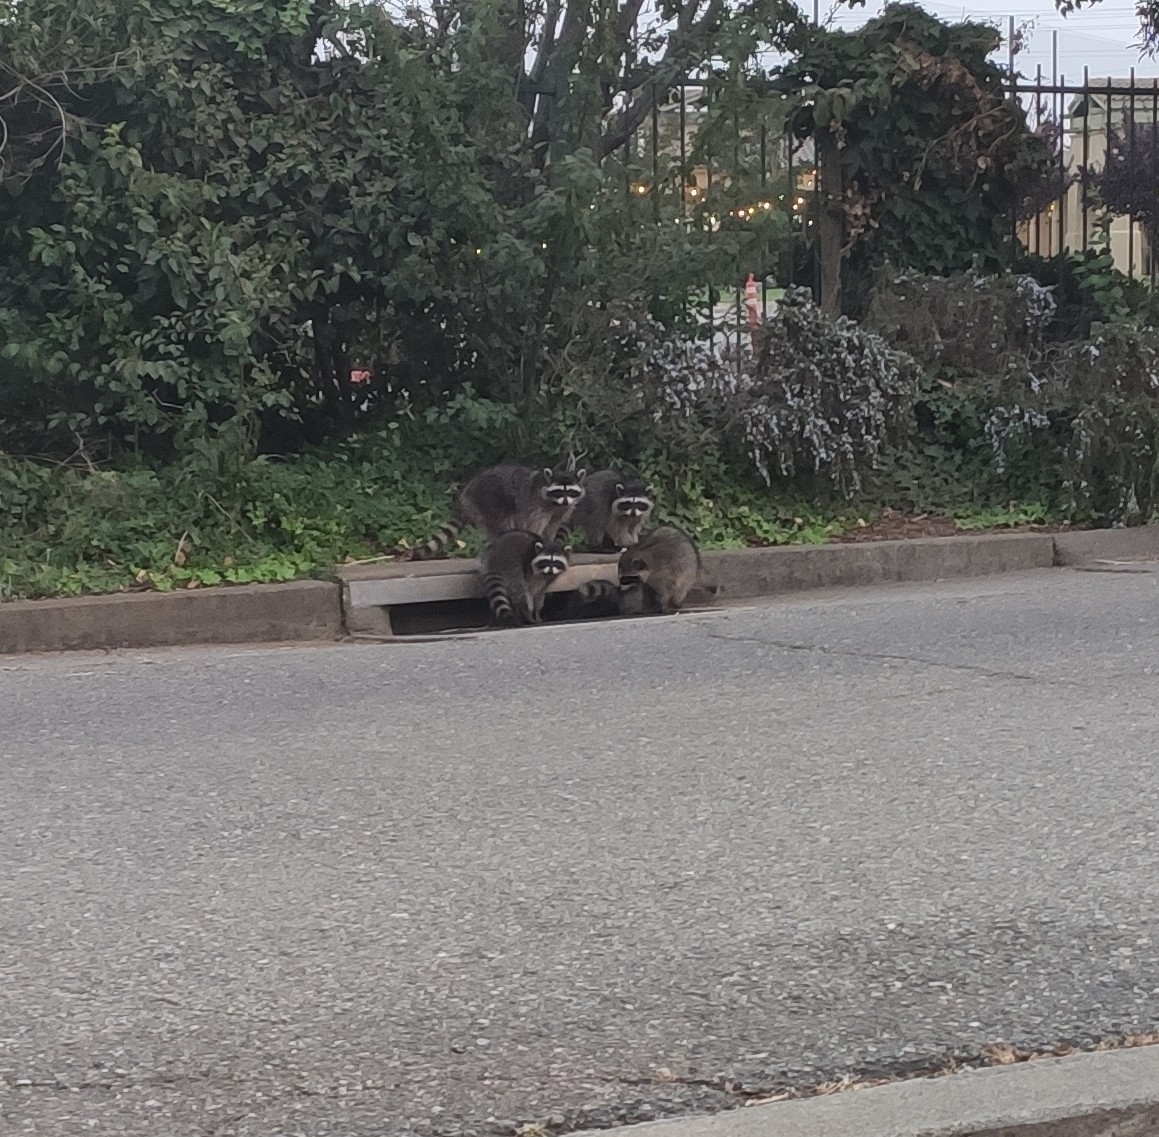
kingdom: Animalia
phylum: Chordata
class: Mammalia
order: Carnivora
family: Procyonidae
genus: Procyon
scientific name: Procyon lotor
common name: Raccoon
